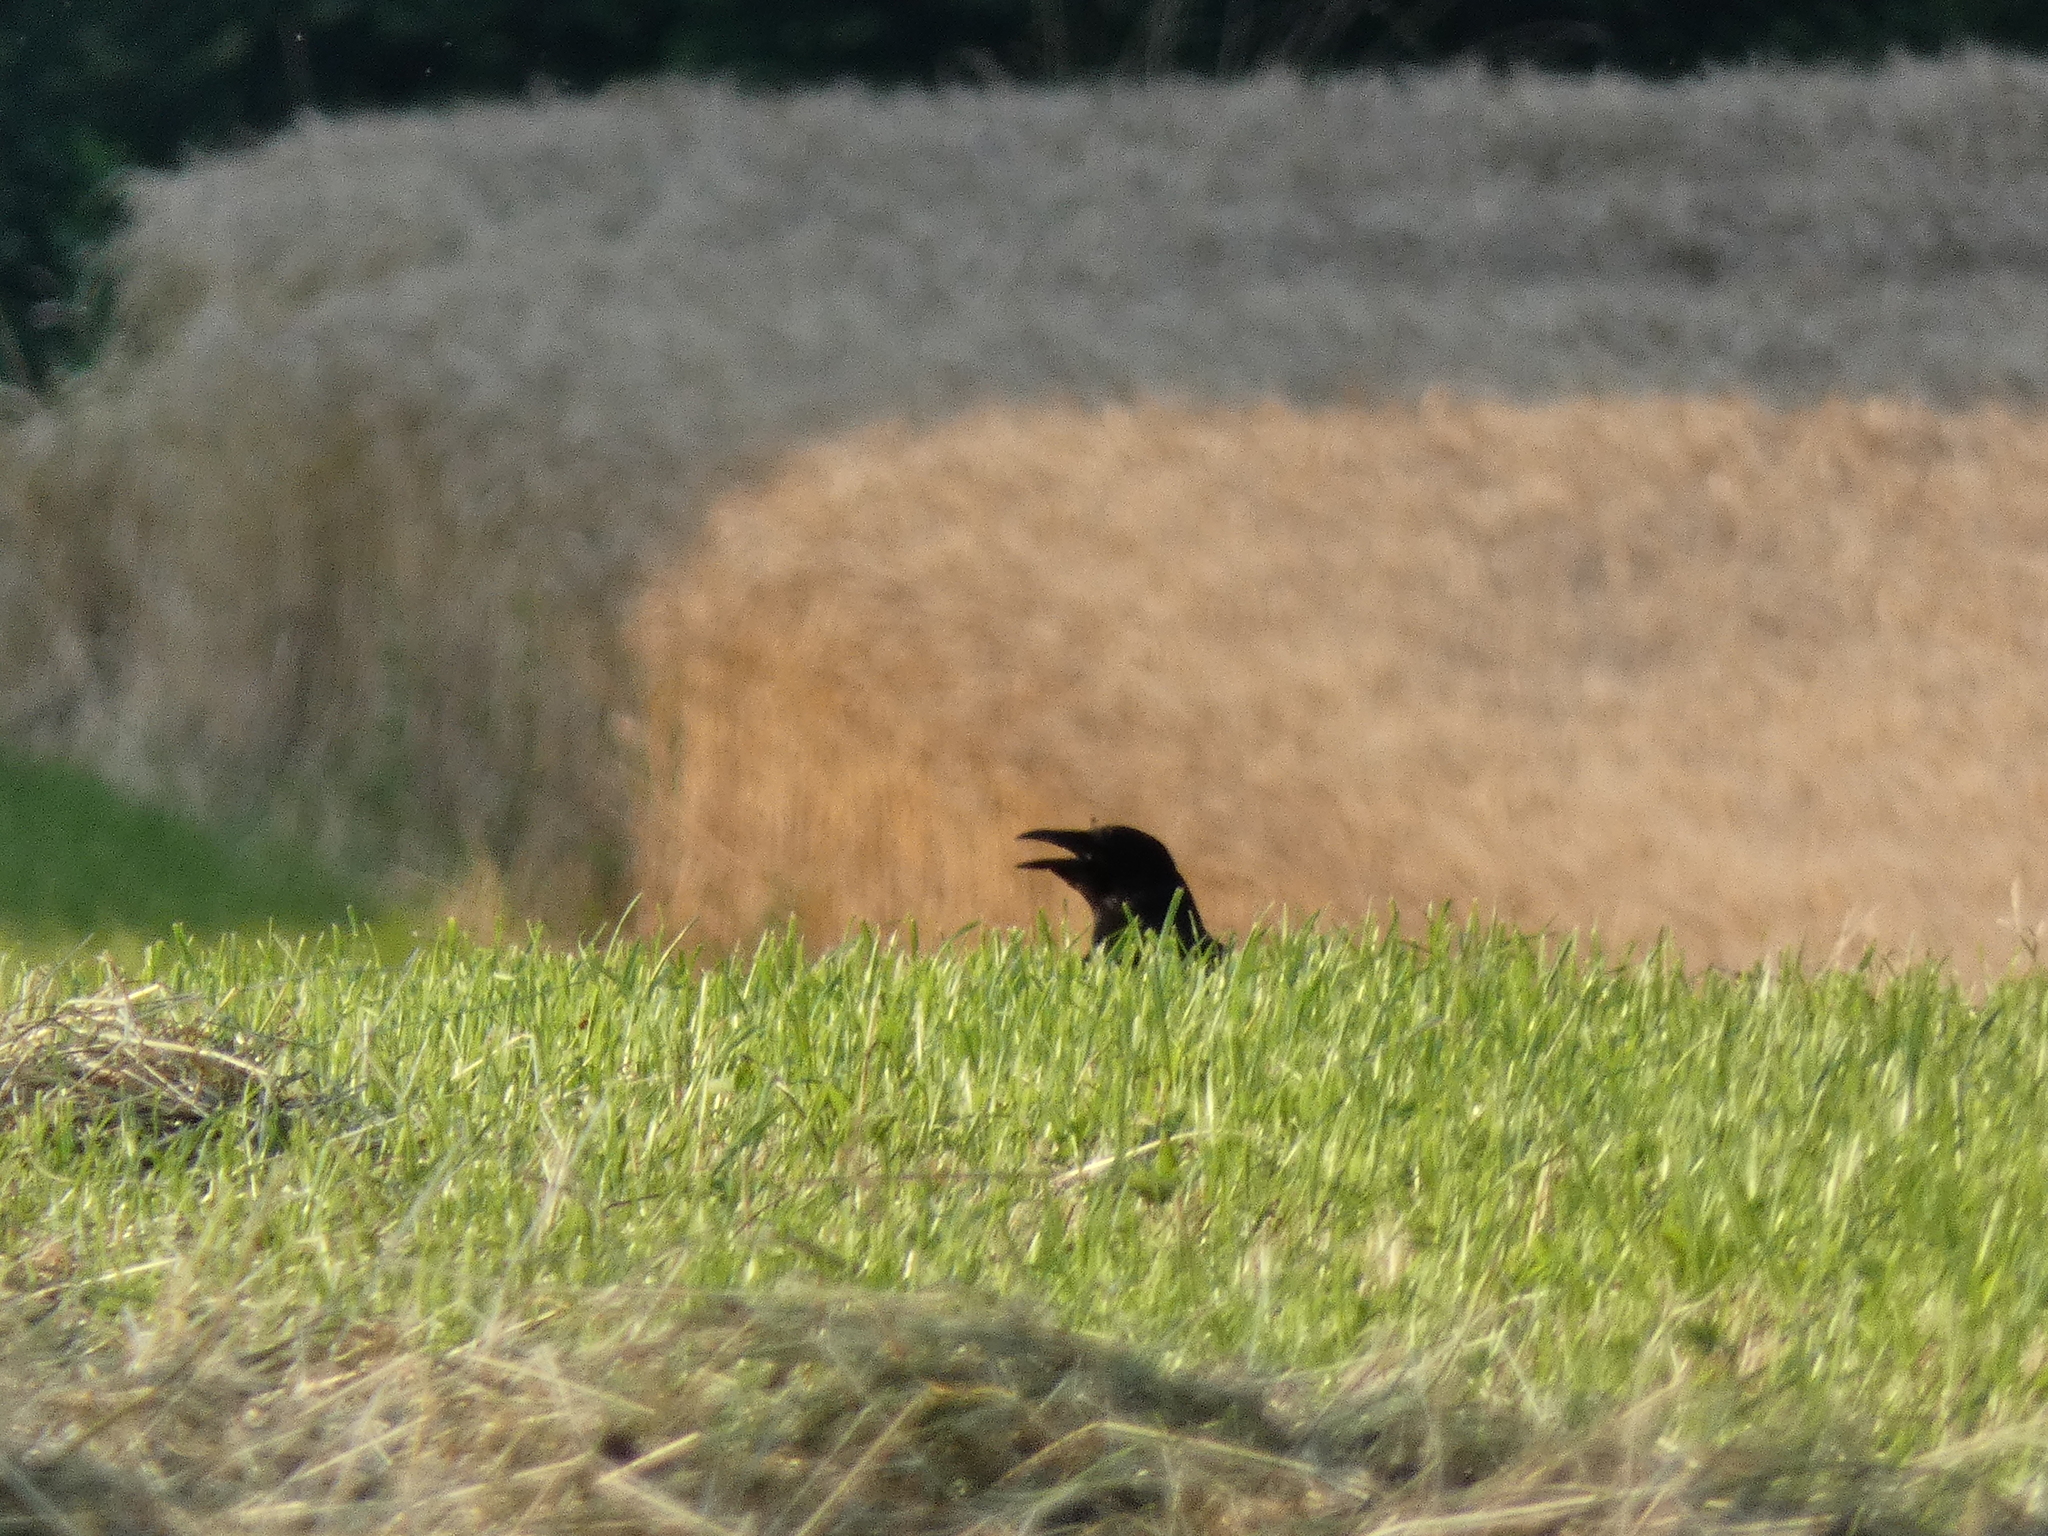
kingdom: Animalia
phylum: Chordata
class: Aves
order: Passeriformes
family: Corvidae
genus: Corvus
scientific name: Corvus corone
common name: Carrion crow
